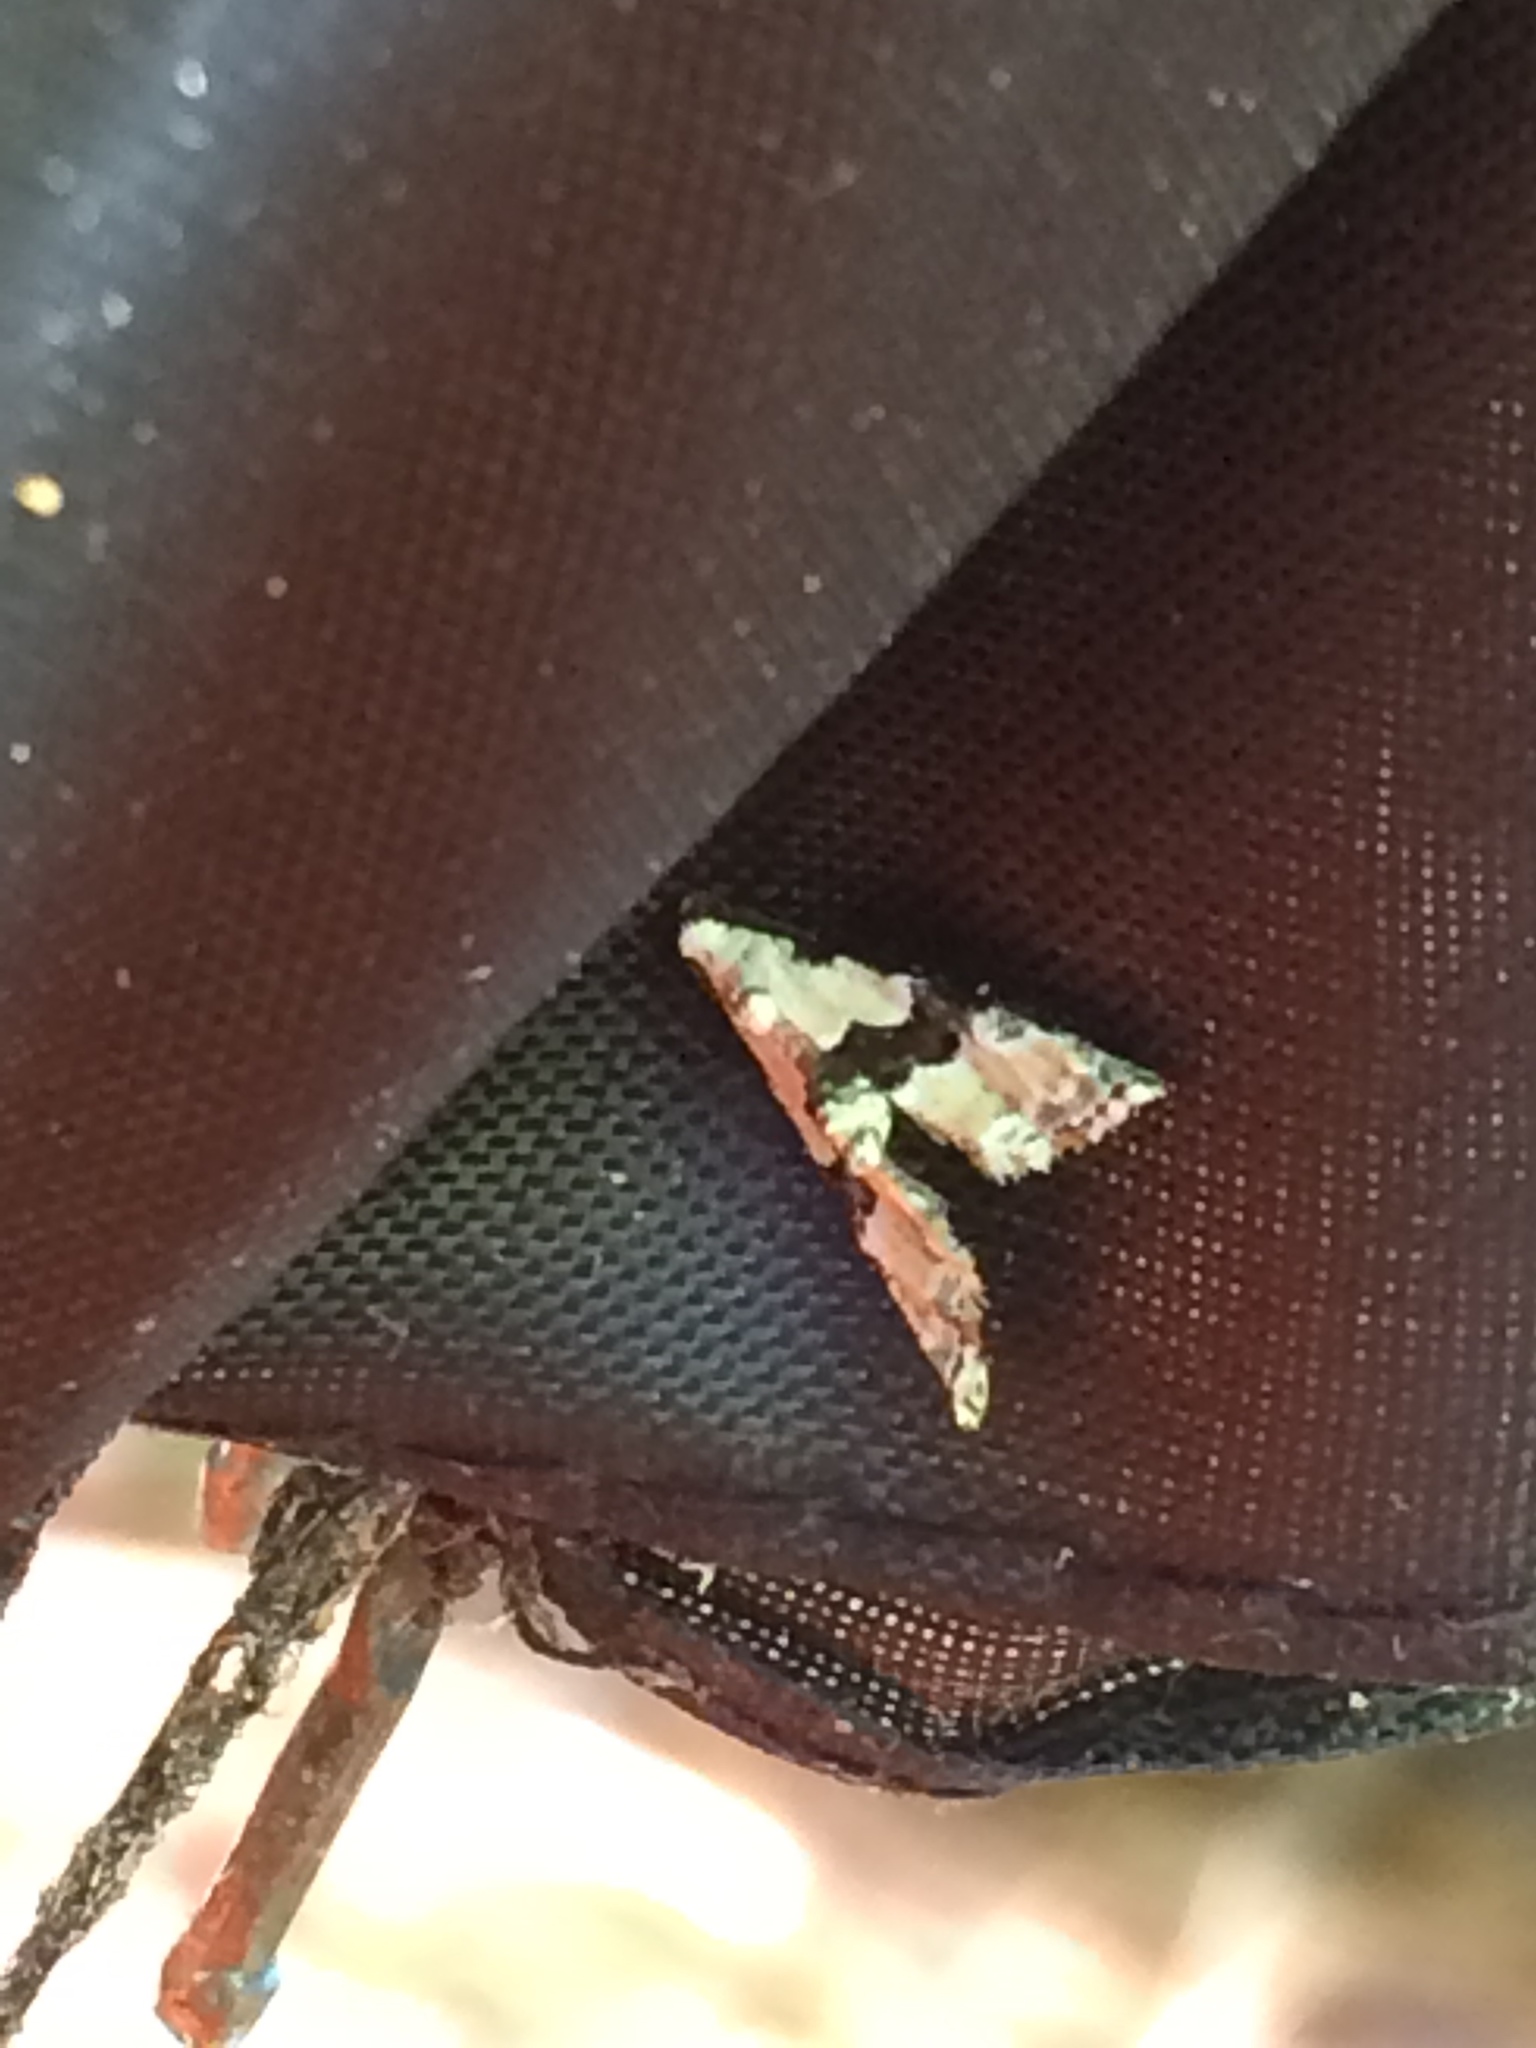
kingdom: Animalia
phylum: Arthropoda
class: Insecta
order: Lepidoptera
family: Noctuidae
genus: Nigetia
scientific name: Nigetia formosalis
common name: Thin-winged owlet
